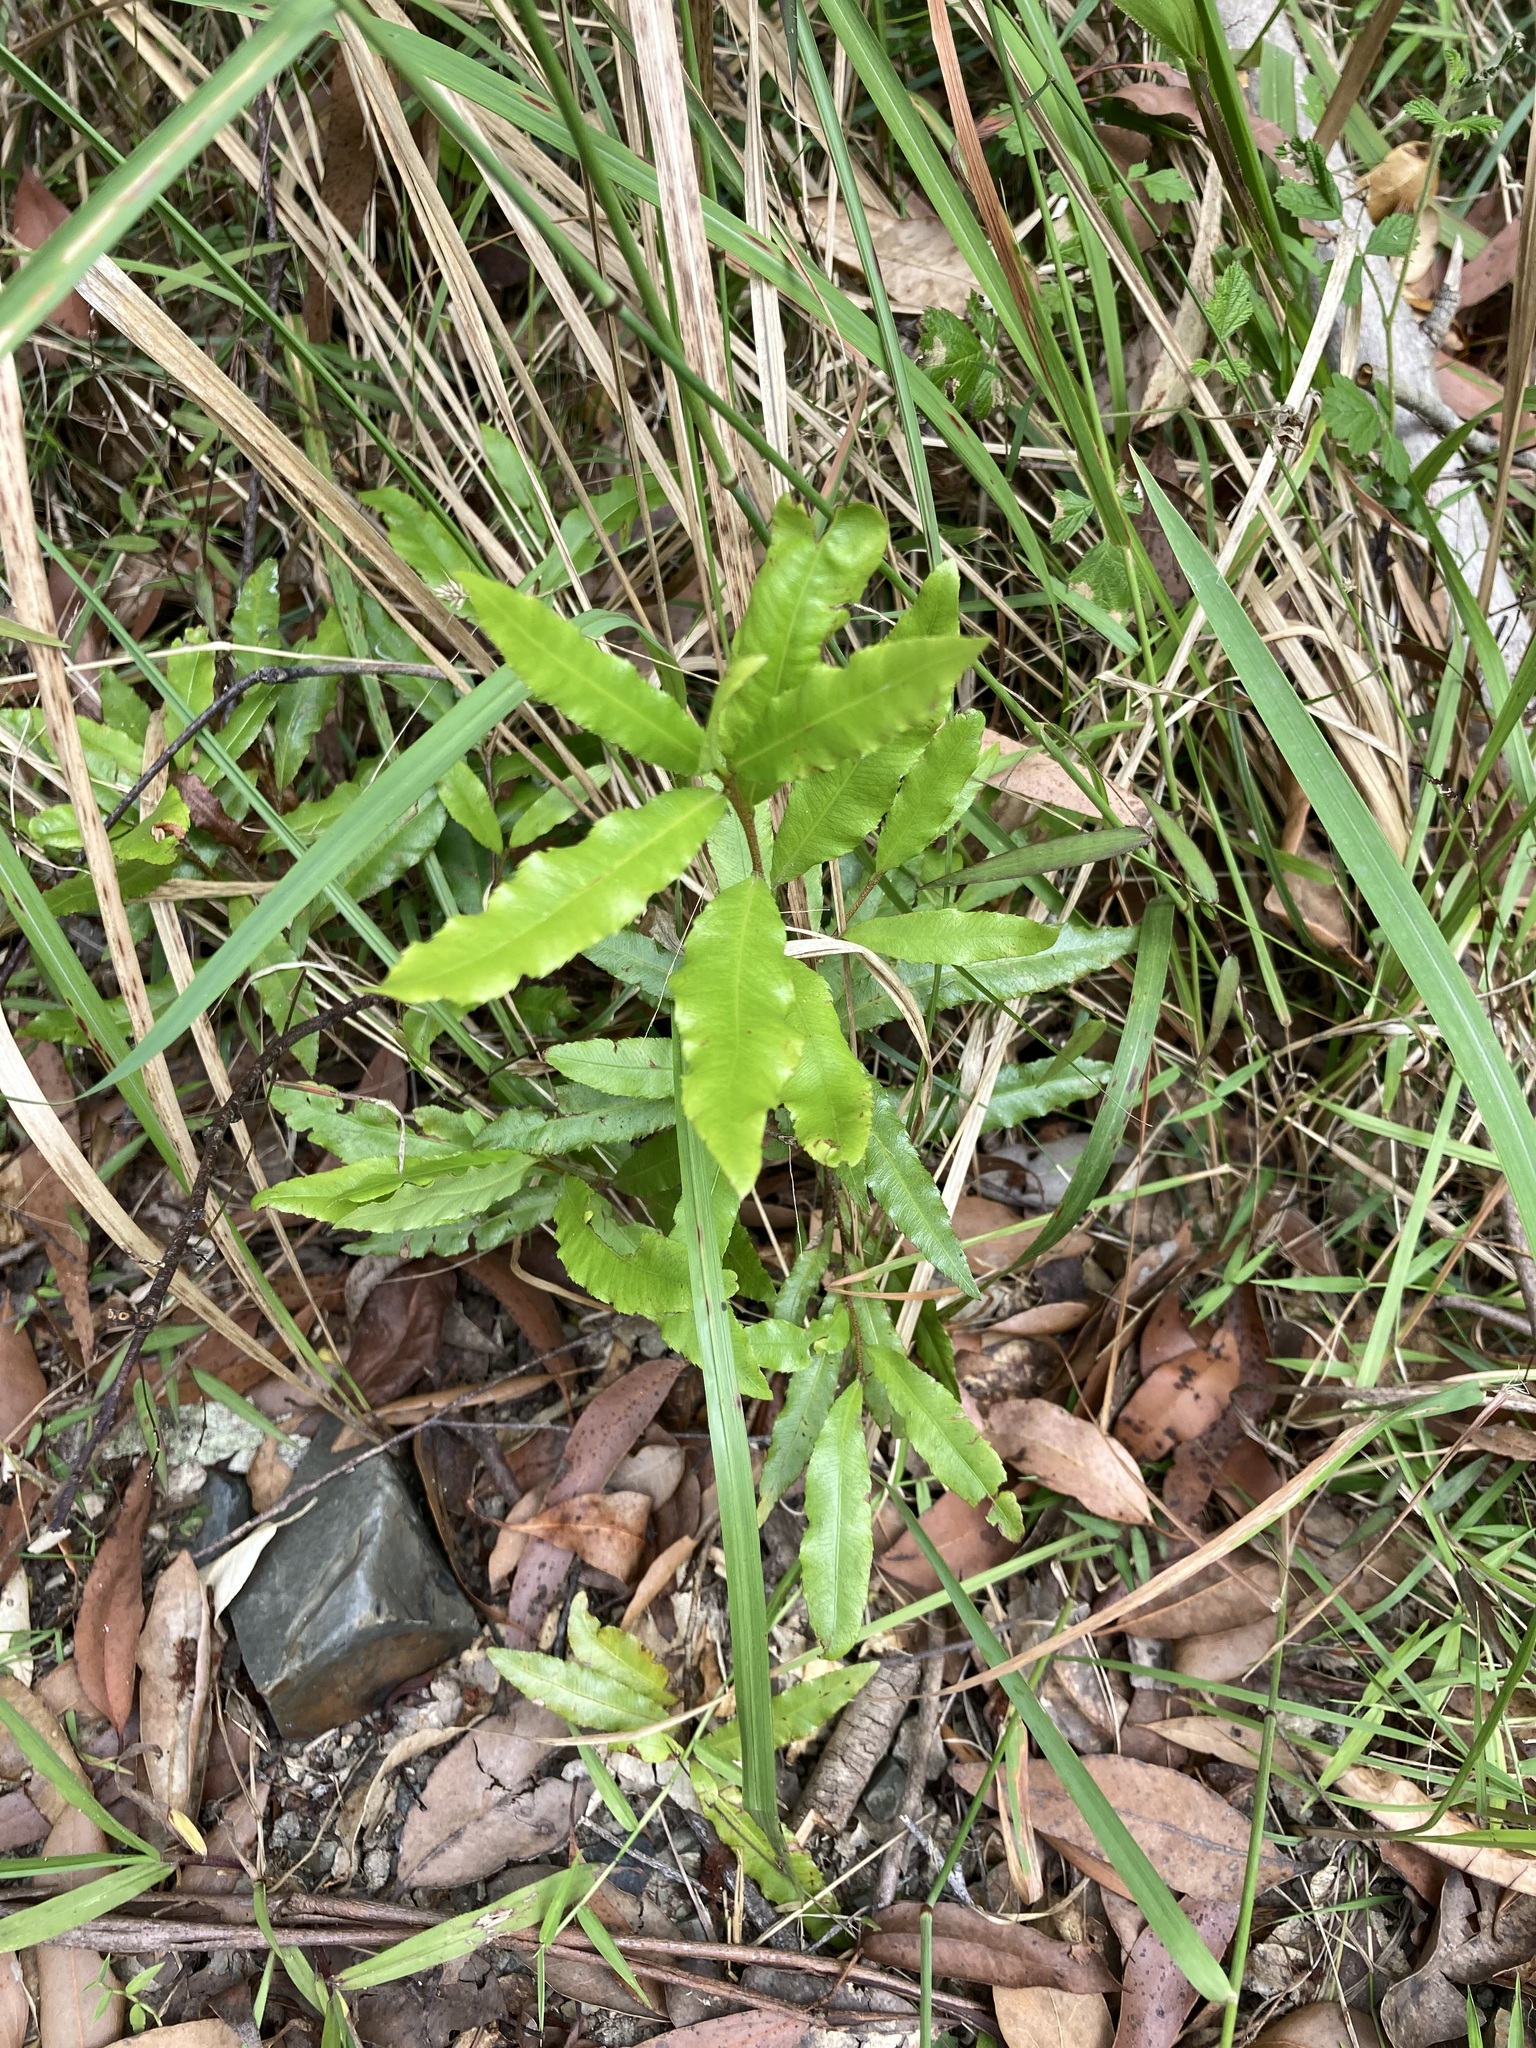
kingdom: Plantae
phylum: Tracheophyta
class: Magnoliopsida
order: Malpighiales
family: Ochnaceae
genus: Ochna
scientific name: Ochna serrulata
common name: Mickey mouse plant
